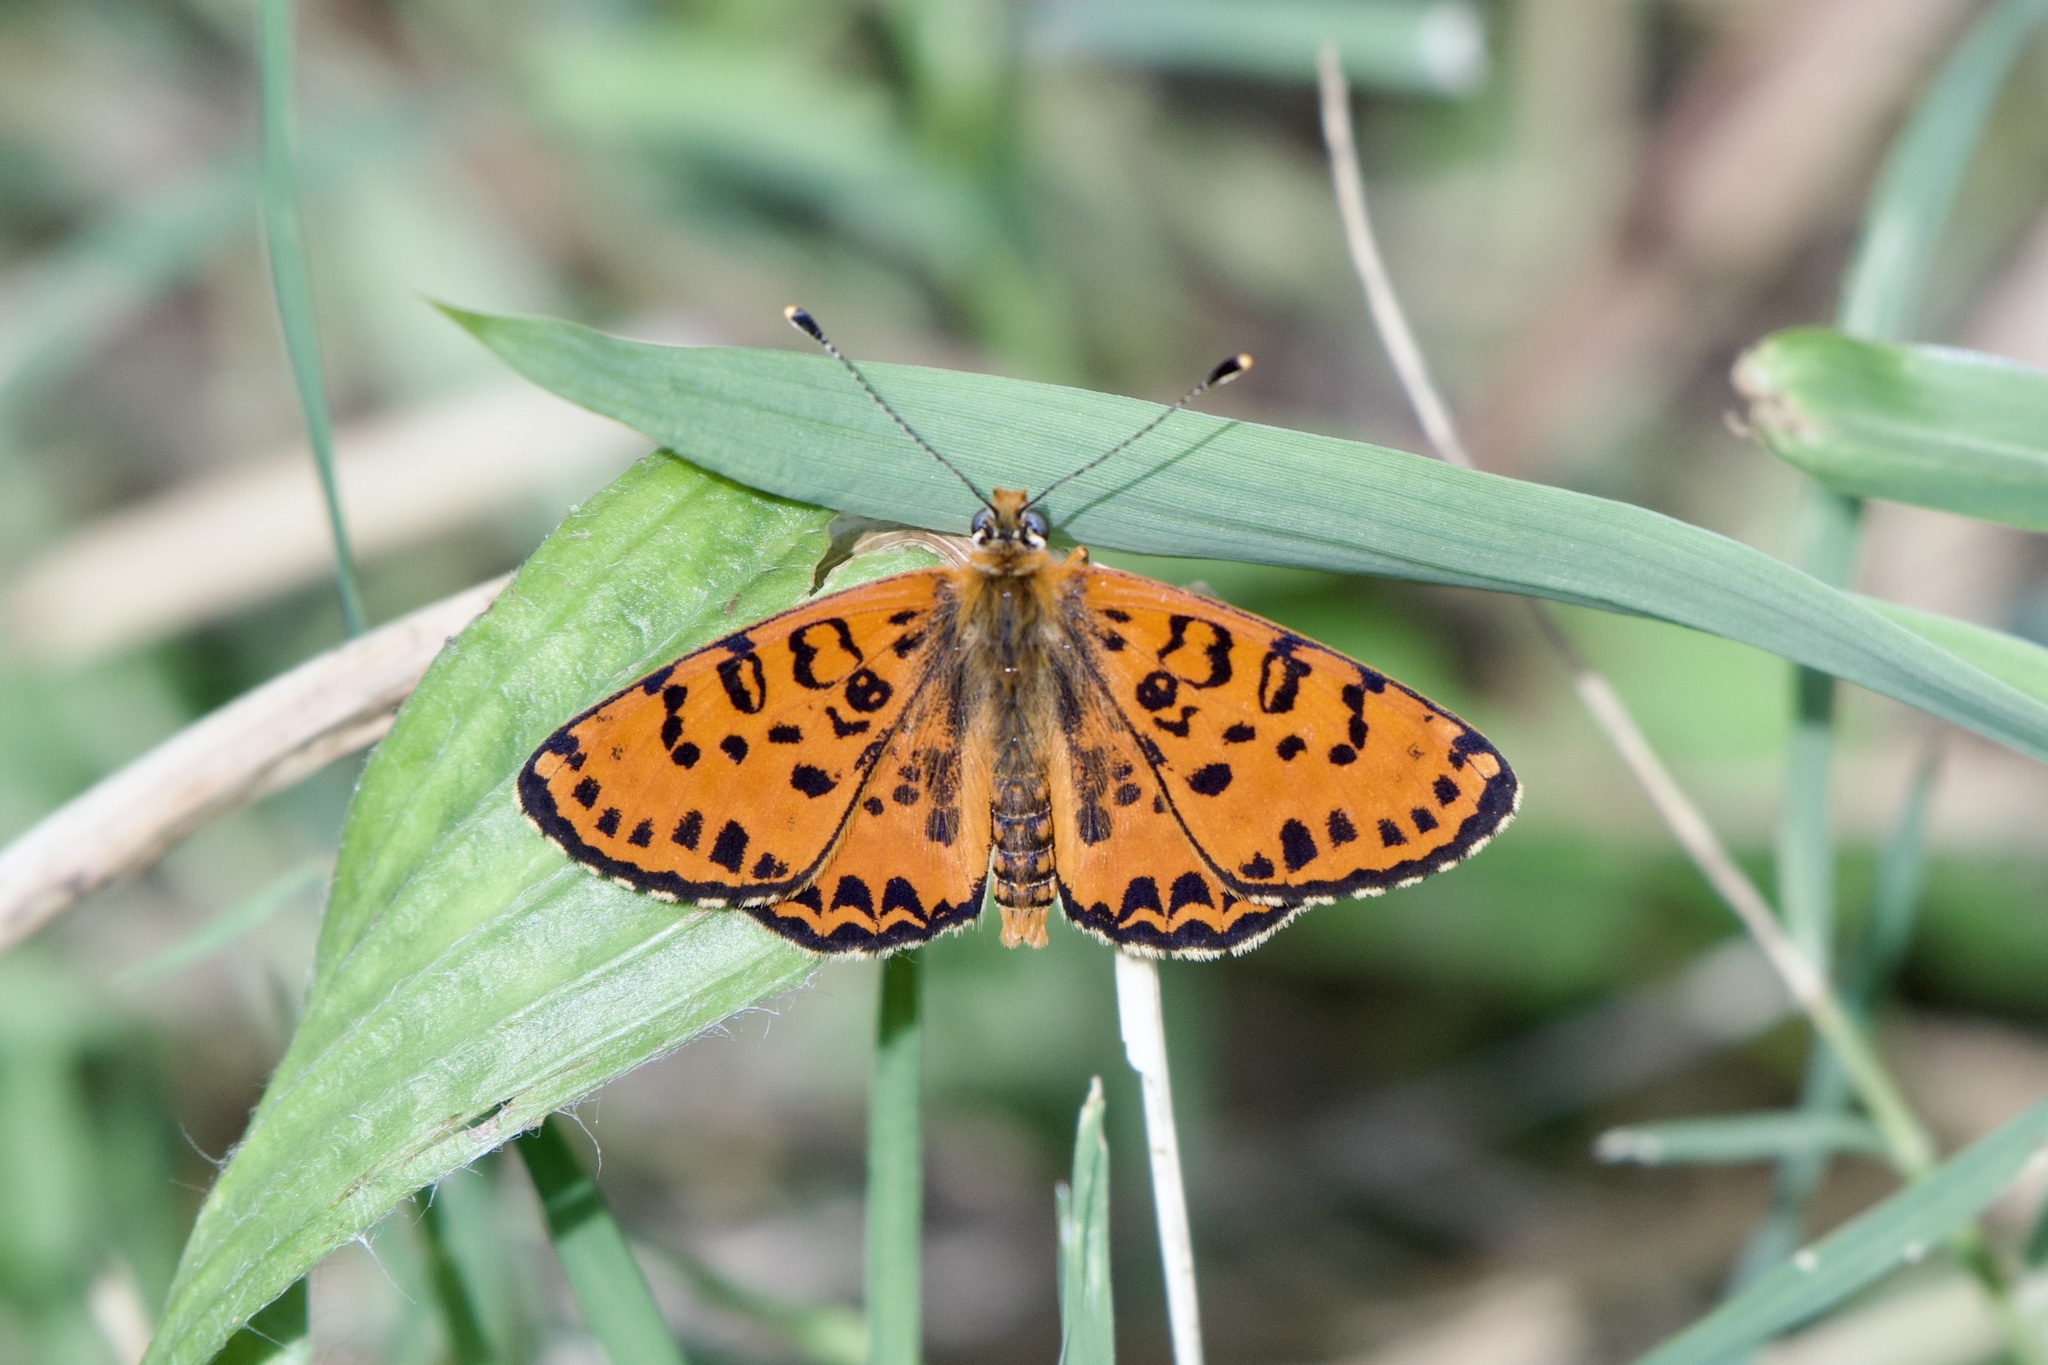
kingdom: Animalia
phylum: Arthropoda
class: Insecta
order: Lepidoptera
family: Nymphalidae
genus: Melitaea
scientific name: Melitaea didyma
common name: Spotted fritillary
